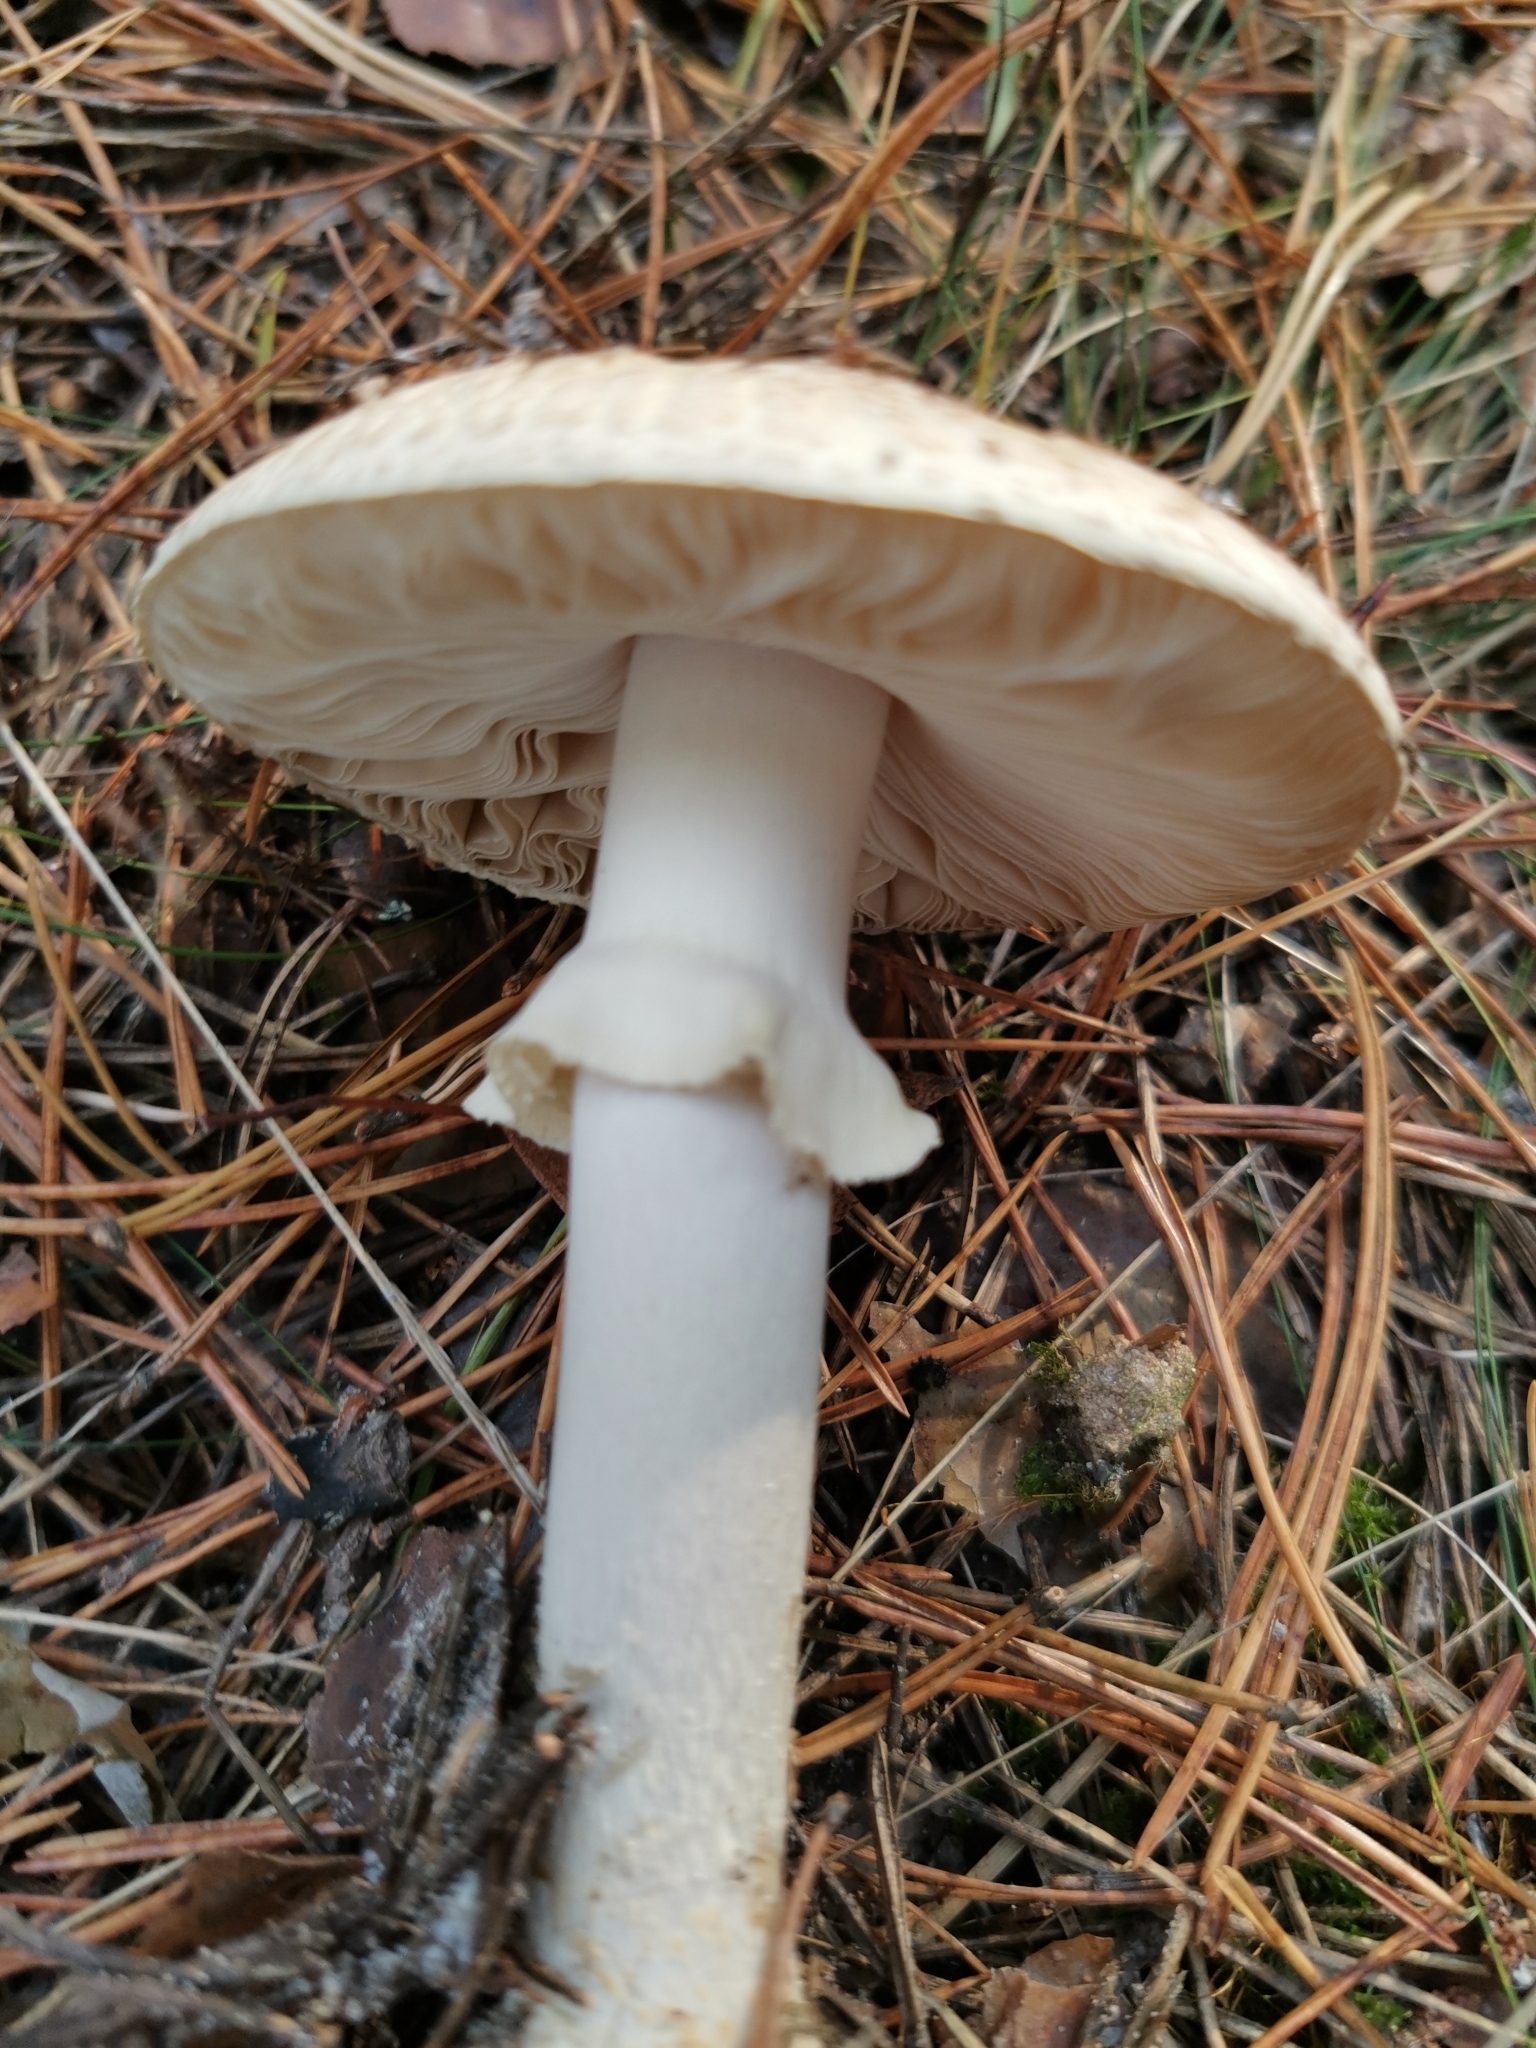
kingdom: Fungi
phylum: Basidiomycota
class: Agaricomycetes
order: Agaricales
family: Amanitaceae
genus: Amanita
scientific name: Amanita citrina
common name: False death-cap
